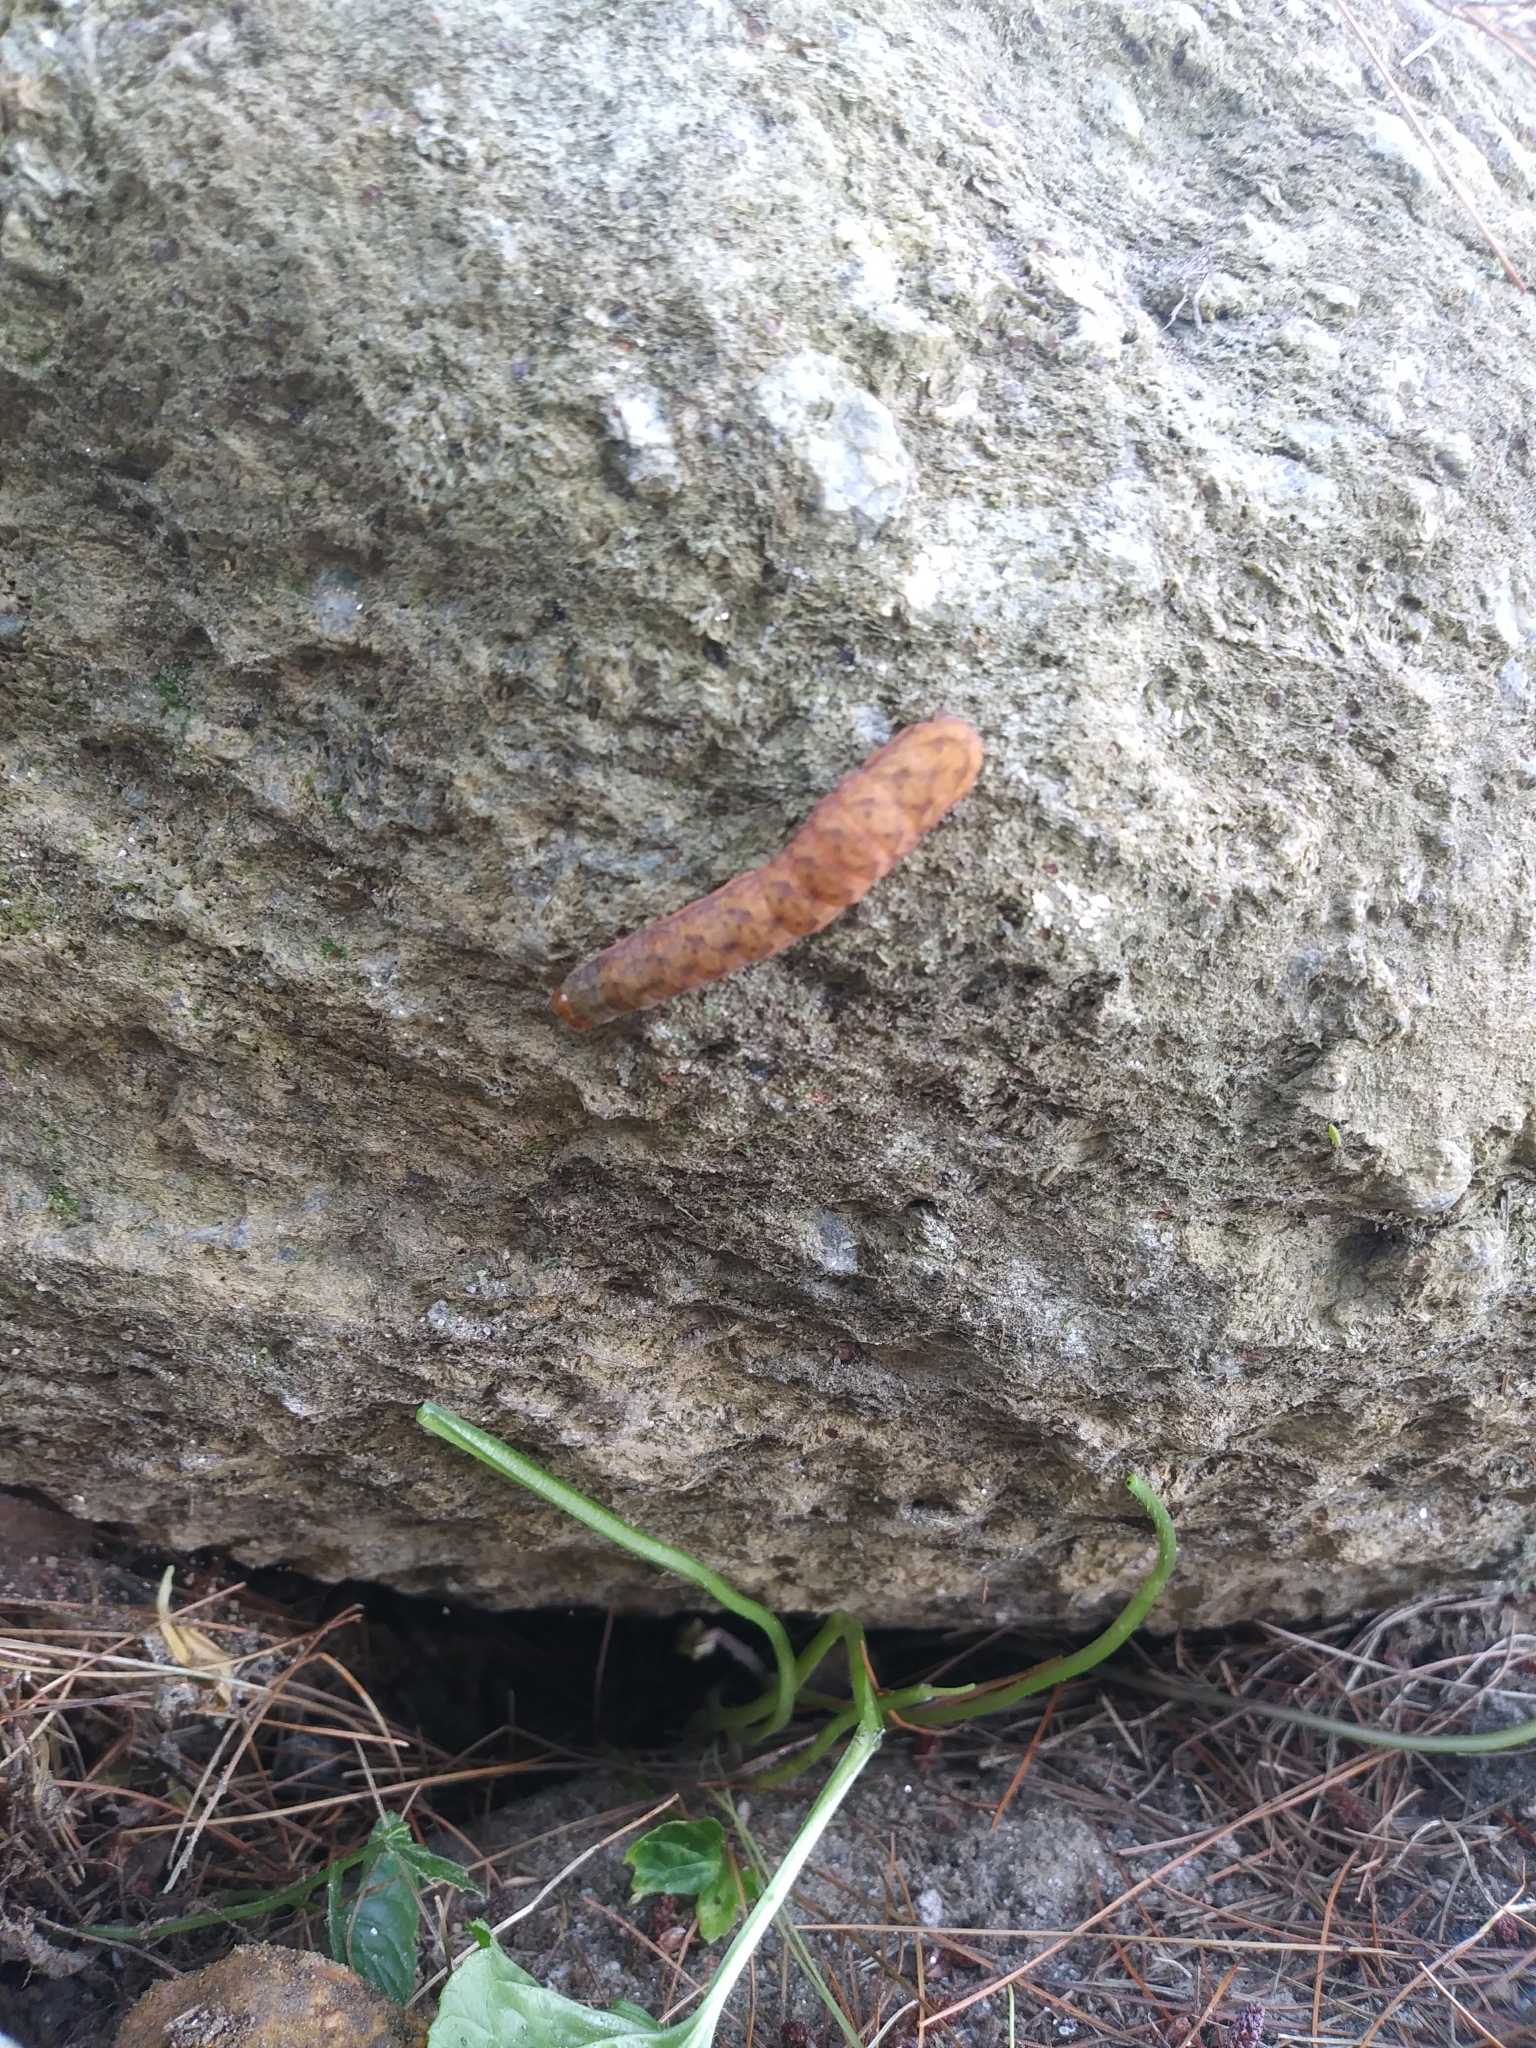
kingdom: Animalia
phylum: Arthropoda
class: Insecta
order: Lepidoptera
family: Noctuidae
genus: Spiramater
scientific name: Spiramater lutra
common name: Otter spiramater moth
